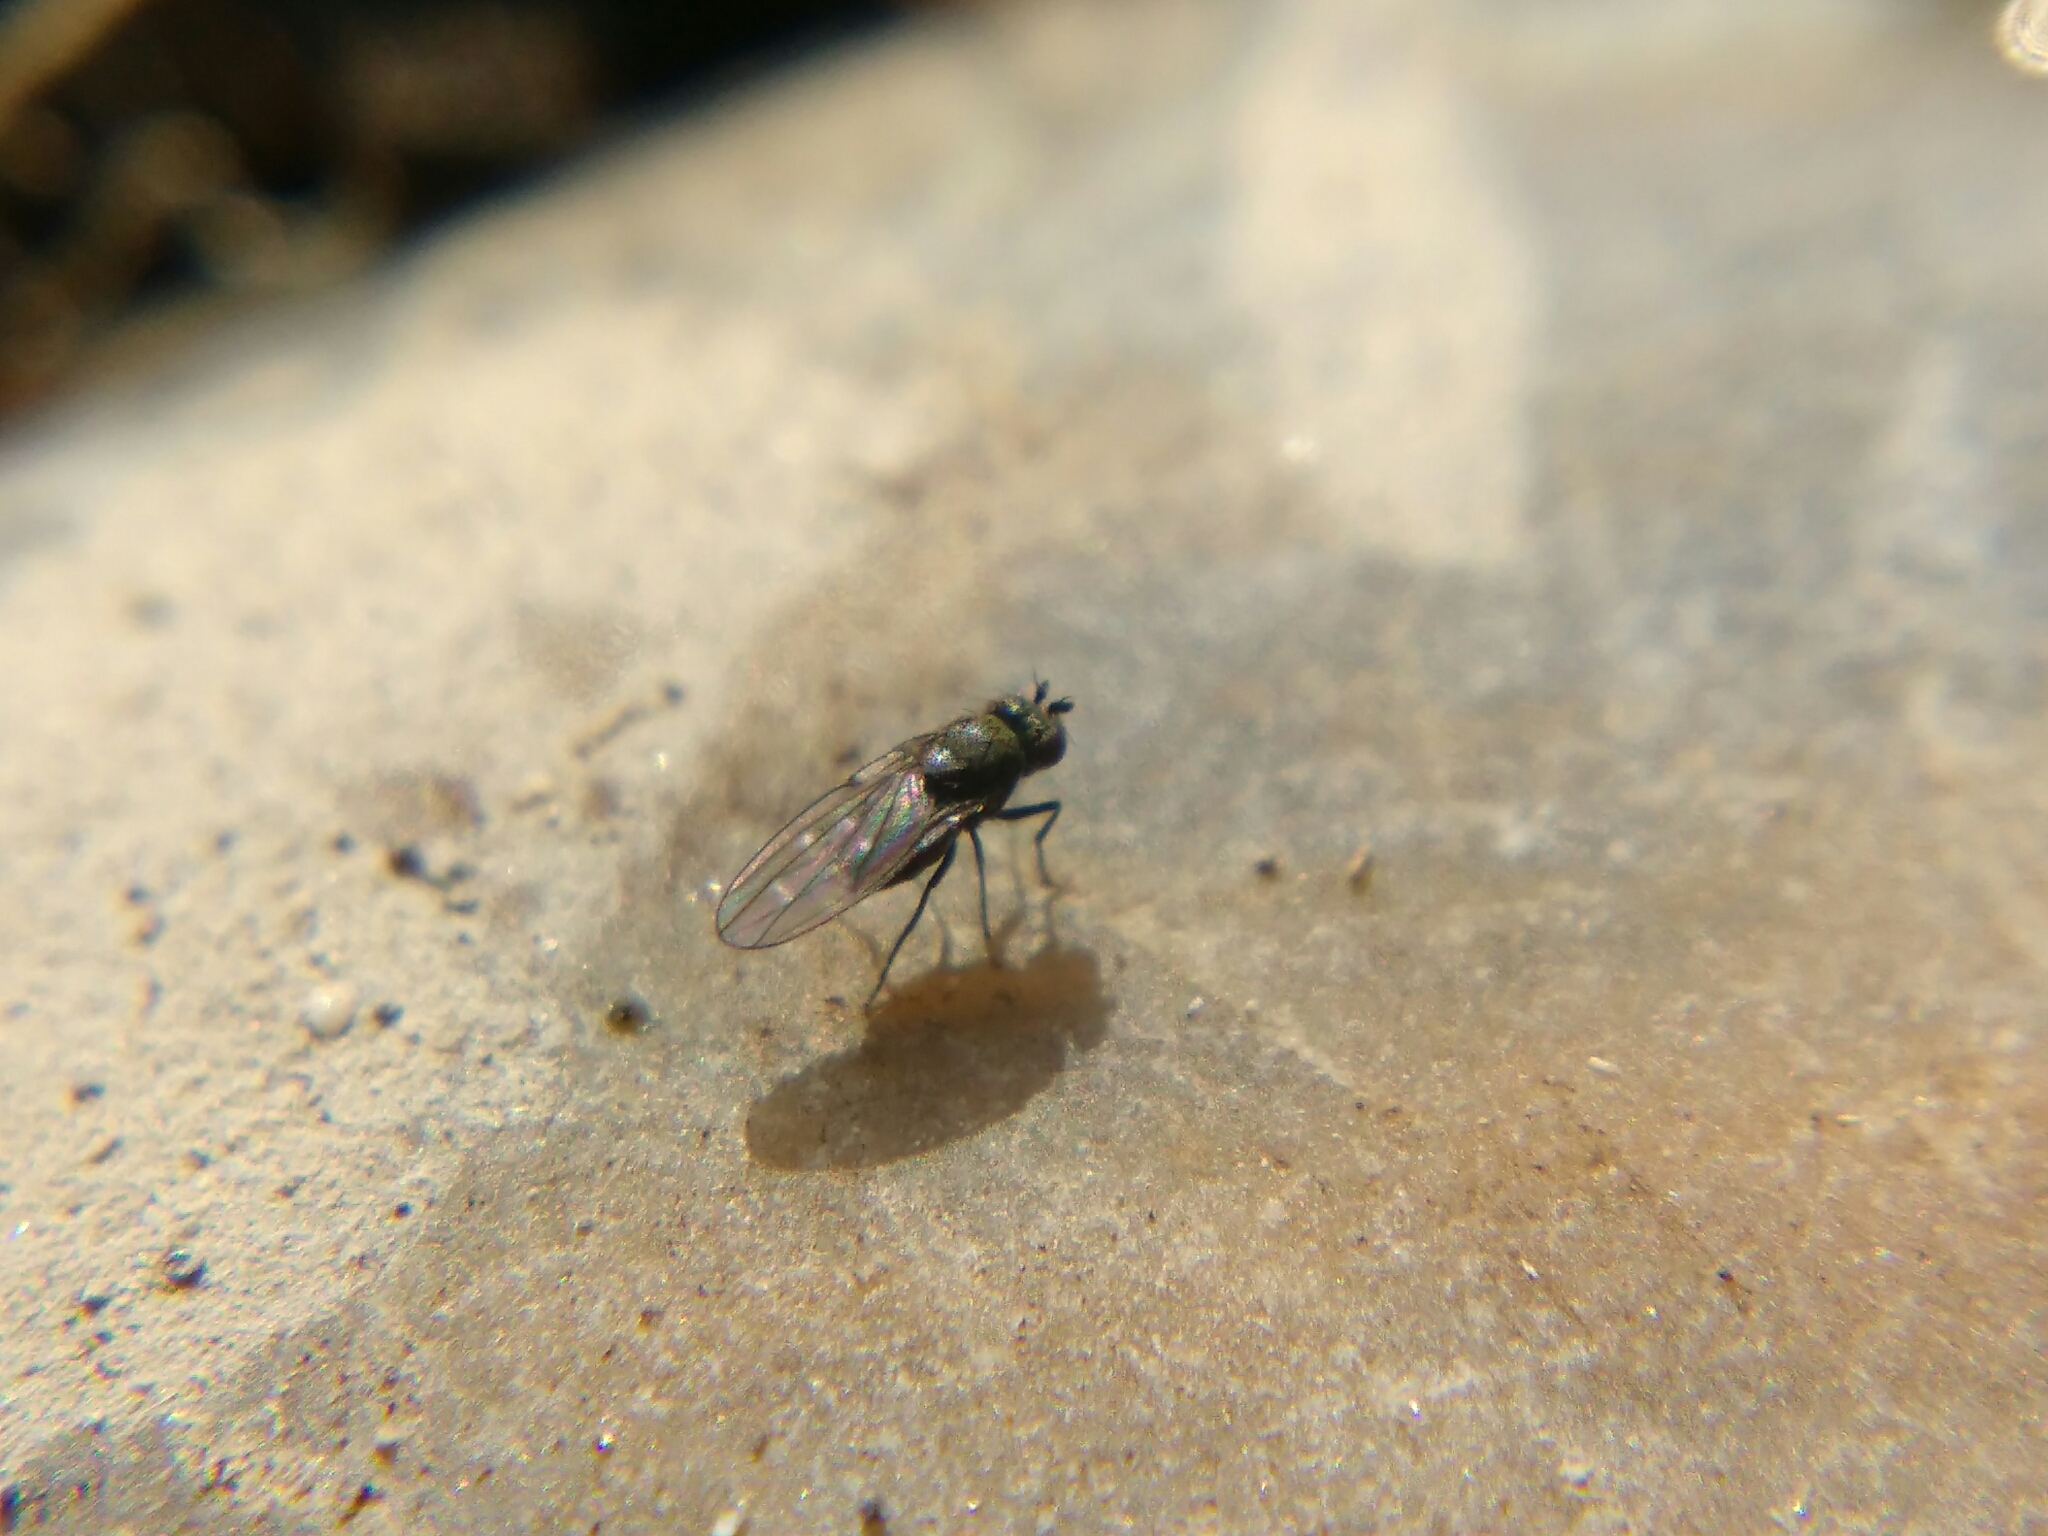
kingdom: Animalia
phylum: Arthropoda
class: Insecta
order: Diptera
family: Ephydridae
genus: Scatella
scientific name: Scatella tenuicosta
